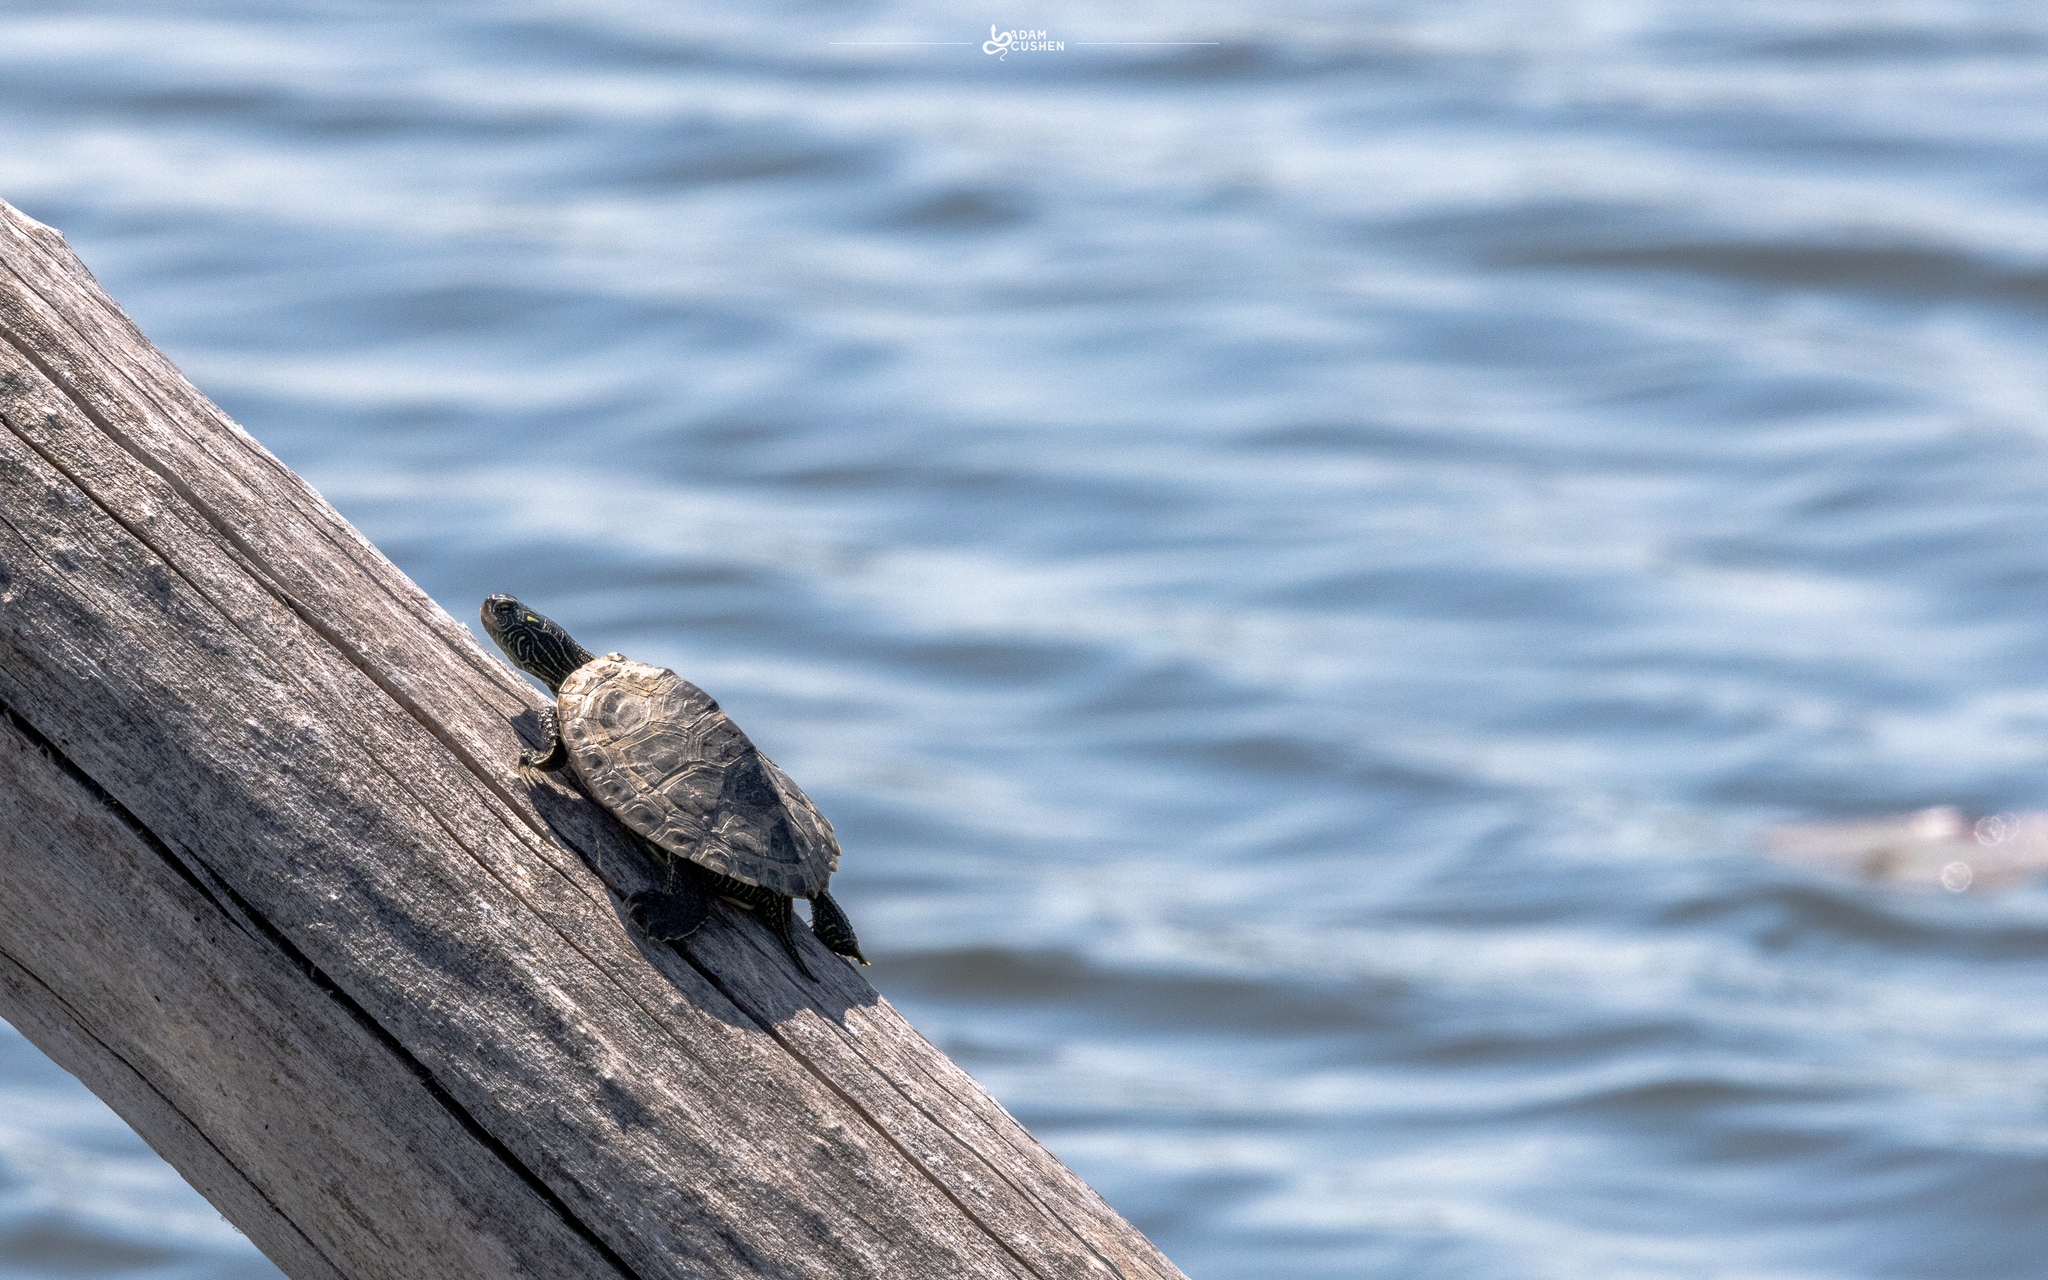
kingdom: Animalia
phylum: Chordata
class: Testudines
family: Emydidae
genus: Graptemys
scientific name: Graptemys geographica
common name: Common map turtle
